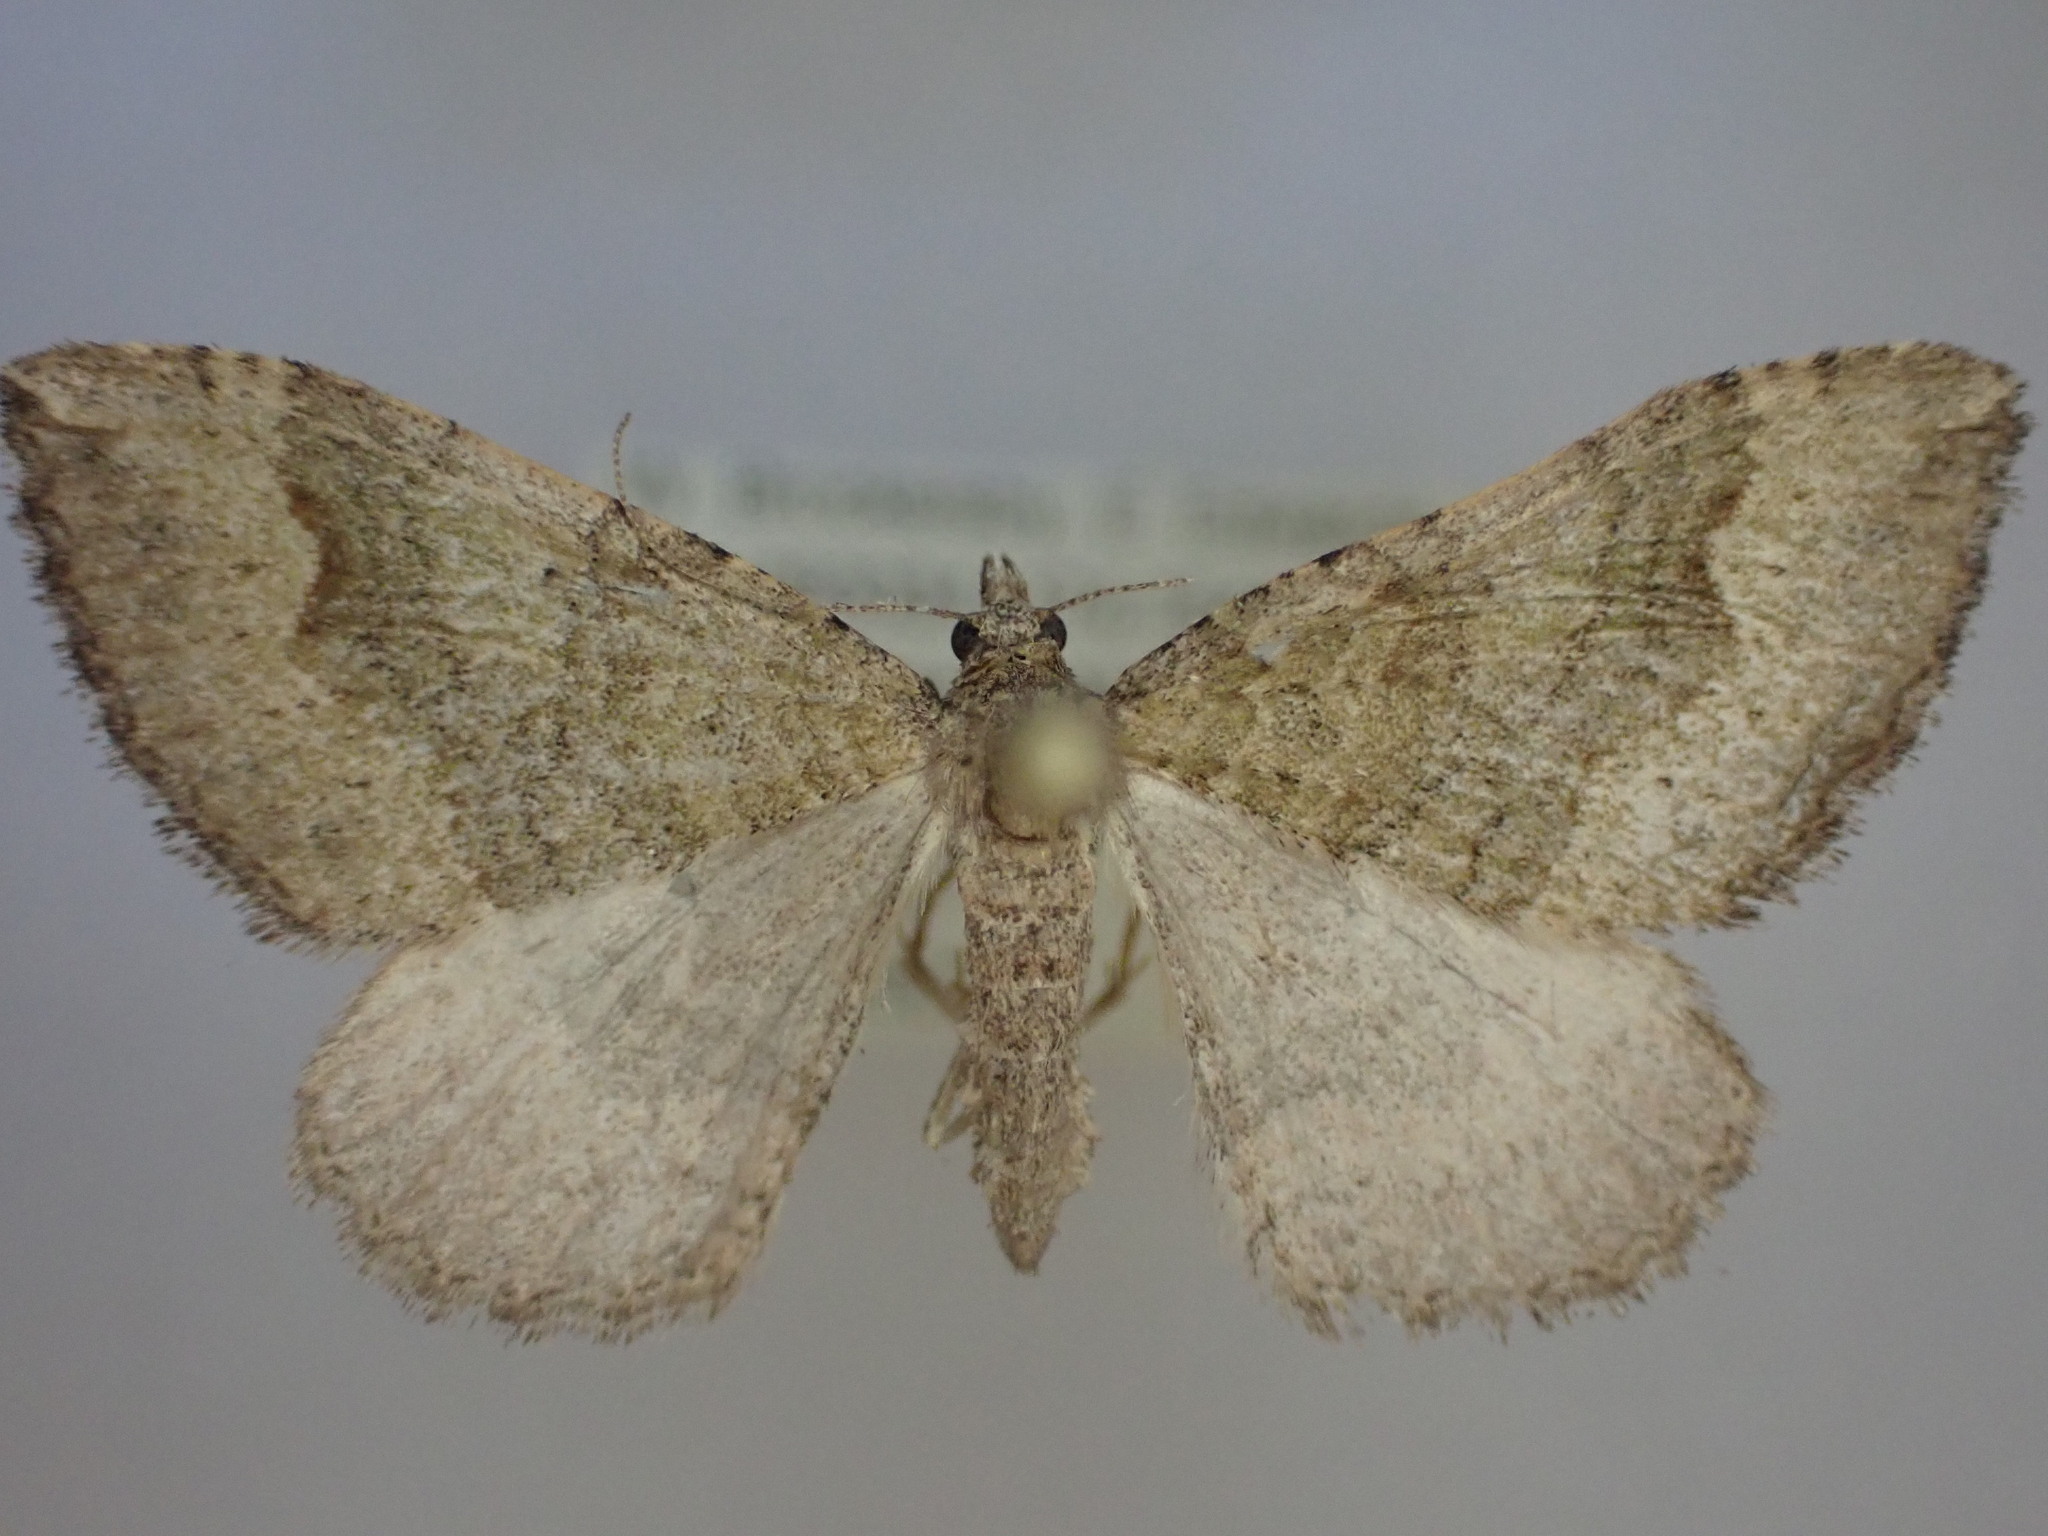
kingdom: Animalia
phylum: Arthropoda
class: Insecta
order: Lepidoptera
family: Geometridae
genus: Epyaxa
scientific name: Epyaxa rosearia
